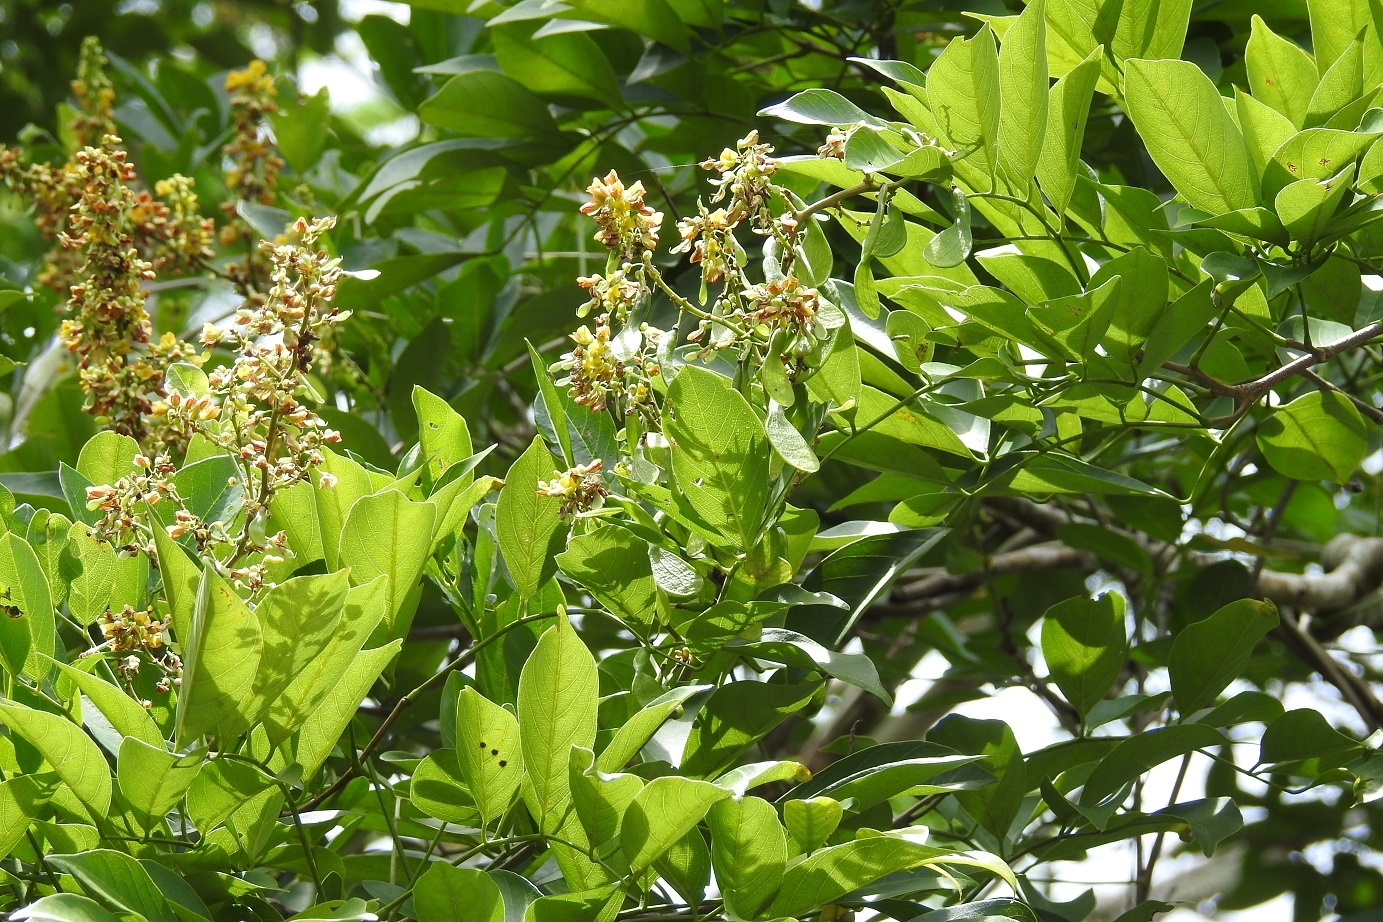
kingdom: Plantae
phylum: Tracheophyta
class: Magnoliopsida
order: Fabales
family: Fabaceae
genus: Nissolia
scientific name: Nissolia fruticosa
